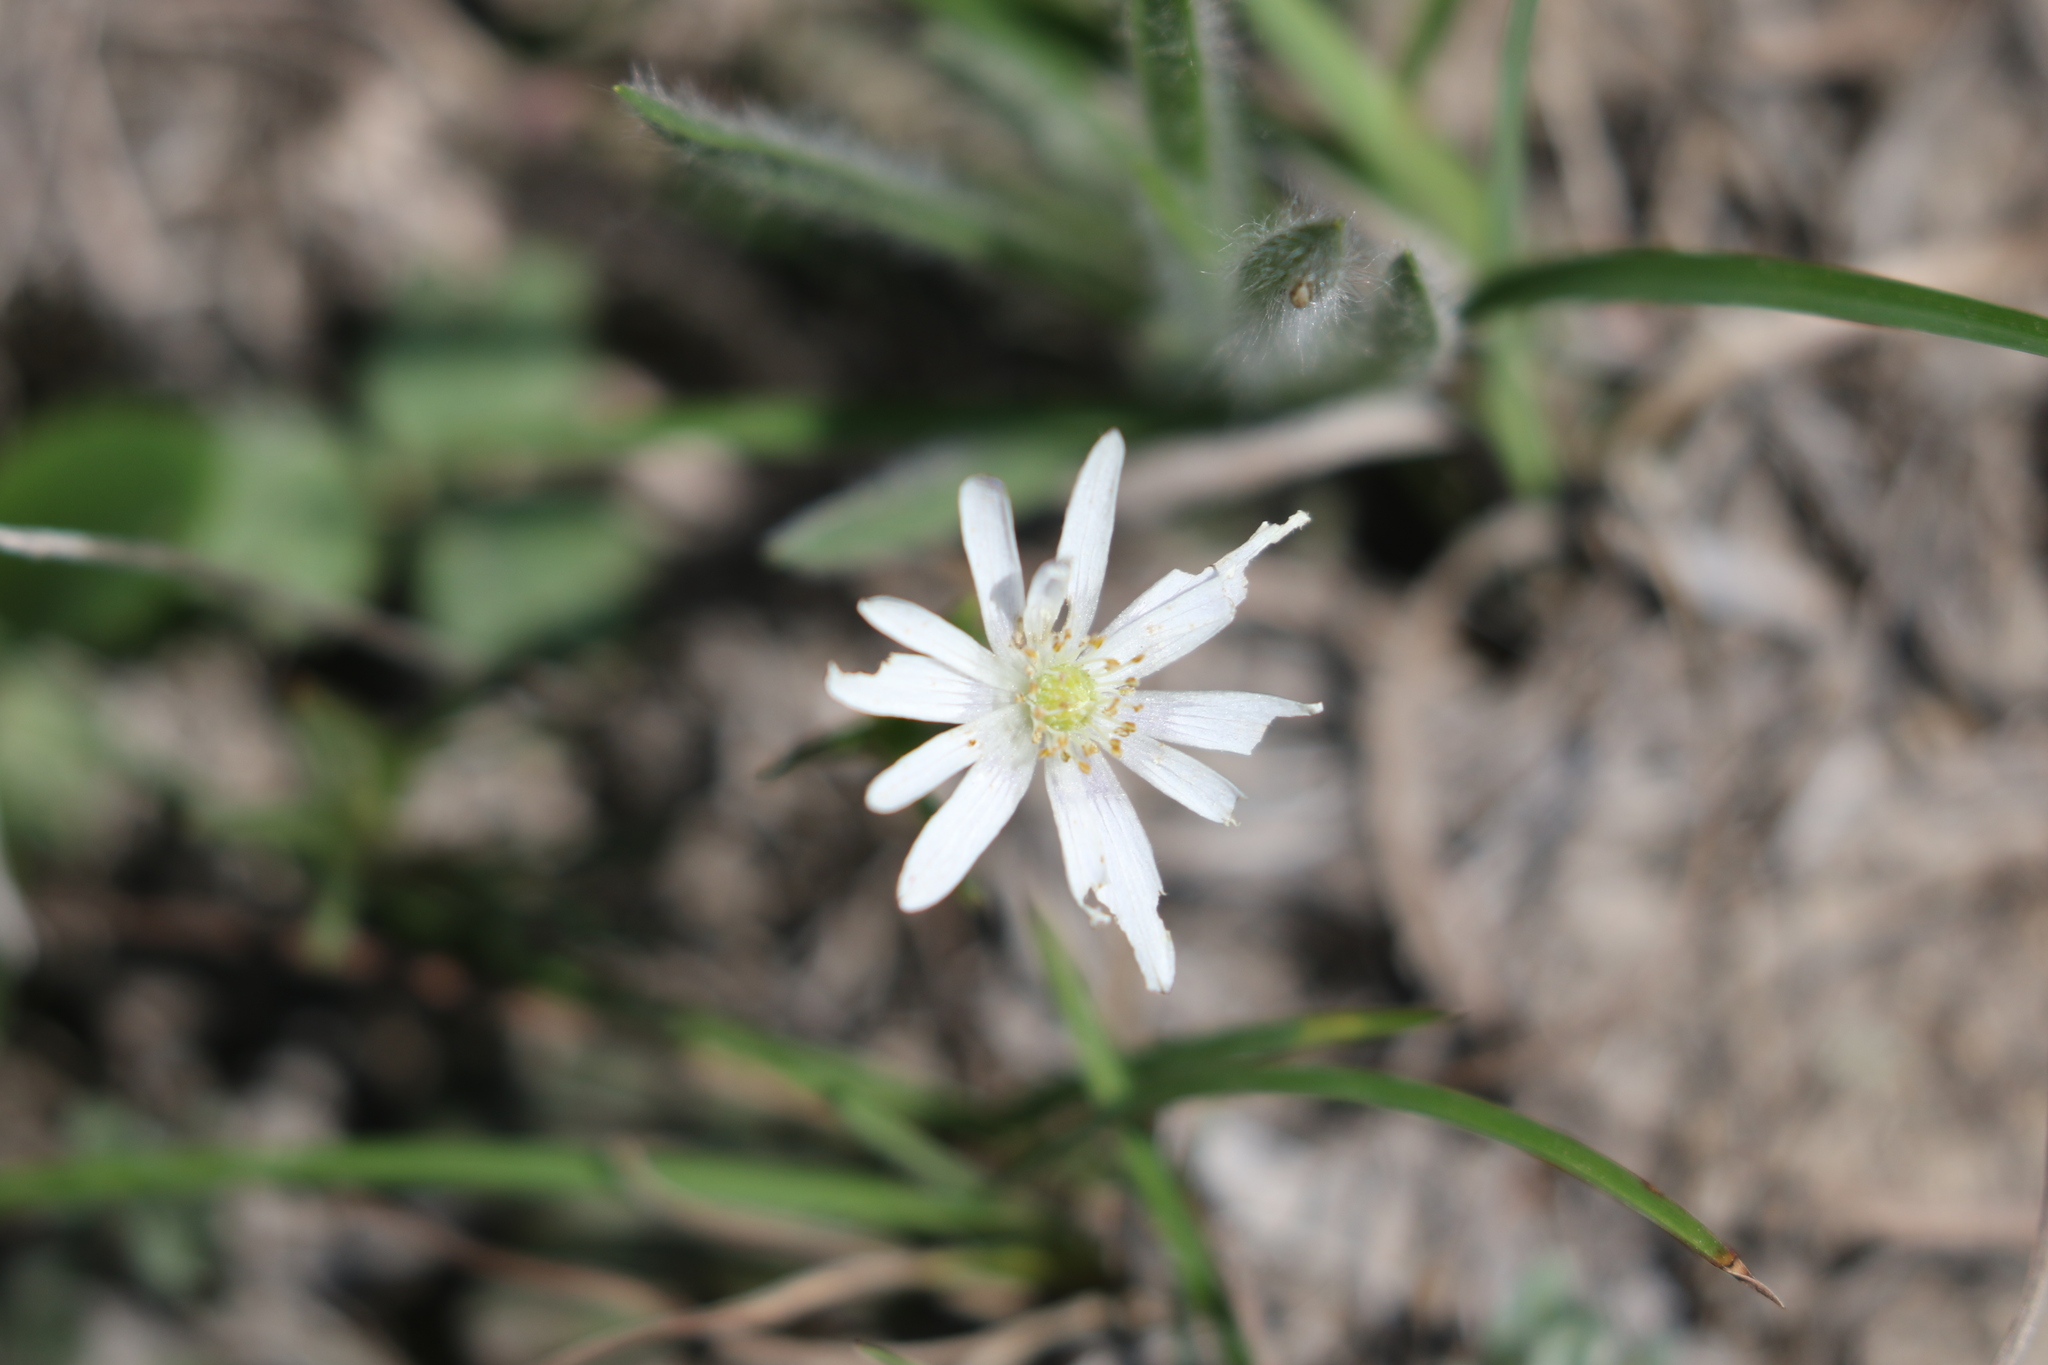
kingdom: Plantae
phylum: Tracheophyta
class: Magnoliopsida
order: Ranunculales
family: Ranunculaceae
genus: Anemone
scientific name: Anemone berlandieri
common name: Ten-petal anemone
